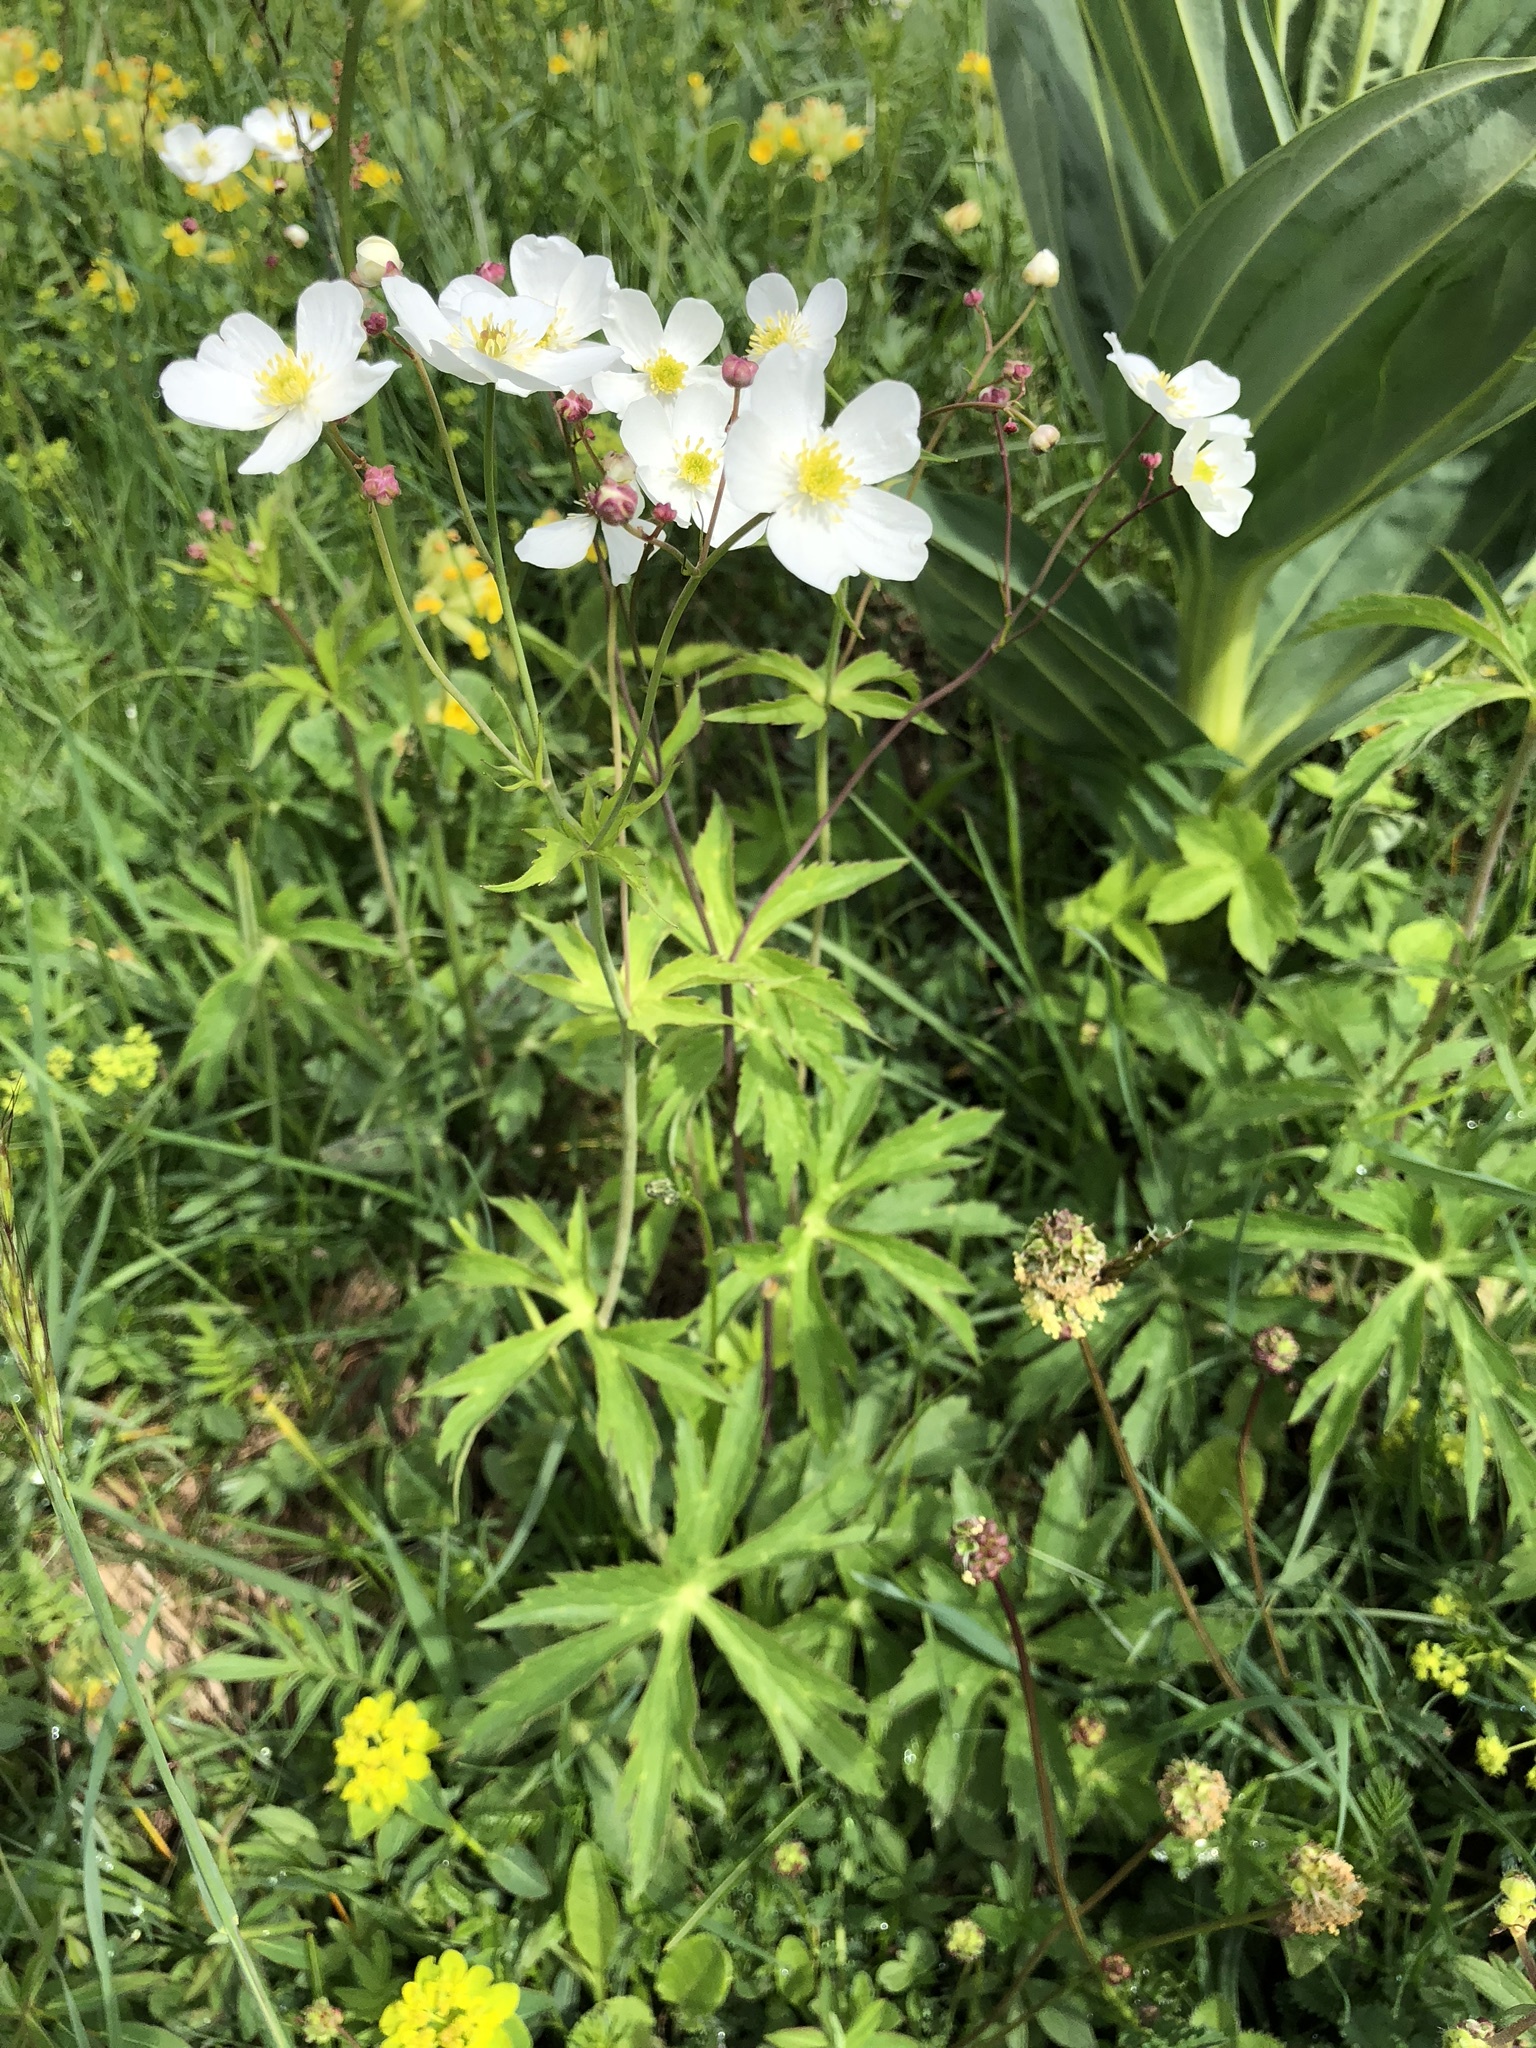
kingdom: Plantae
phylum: Tracheophyta
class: Magnoliopsida
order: Ranunculales
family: Ranunculaceae
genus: Ranunculus
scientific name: Ranunculus aconitifolius
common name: Aconite-leaved buttercup
